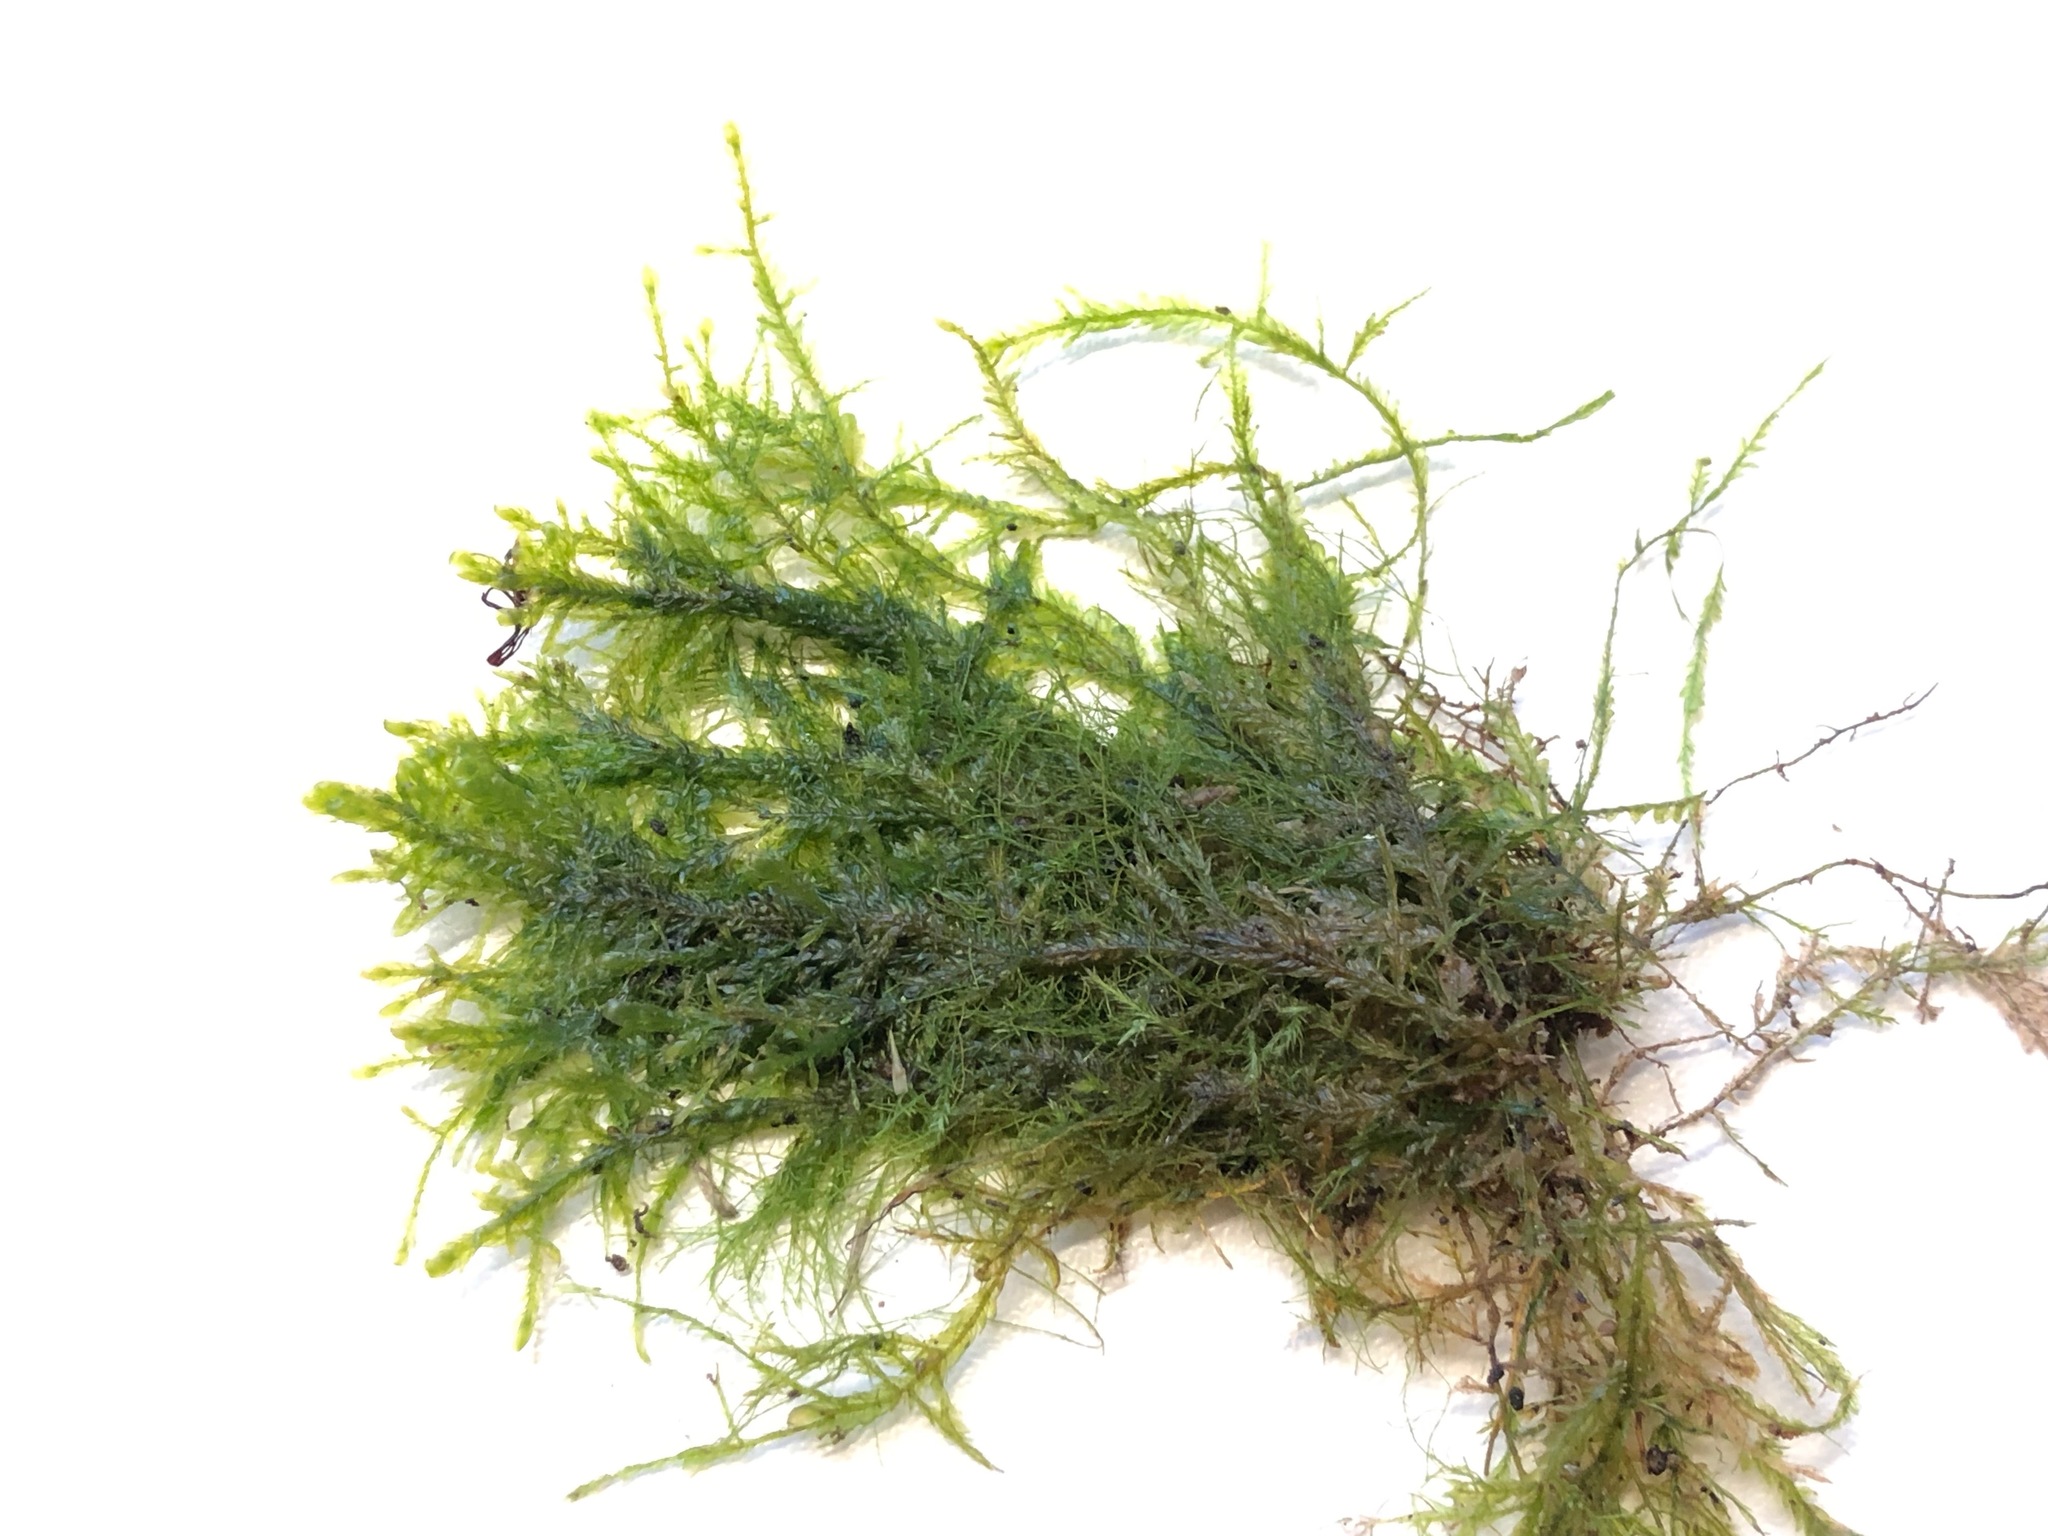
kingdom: Plantae
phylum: Bryophyta
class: Bryopsida
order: Hypnales
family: Neckeraceae
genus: Alleniella
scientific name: Alleniella complanata
